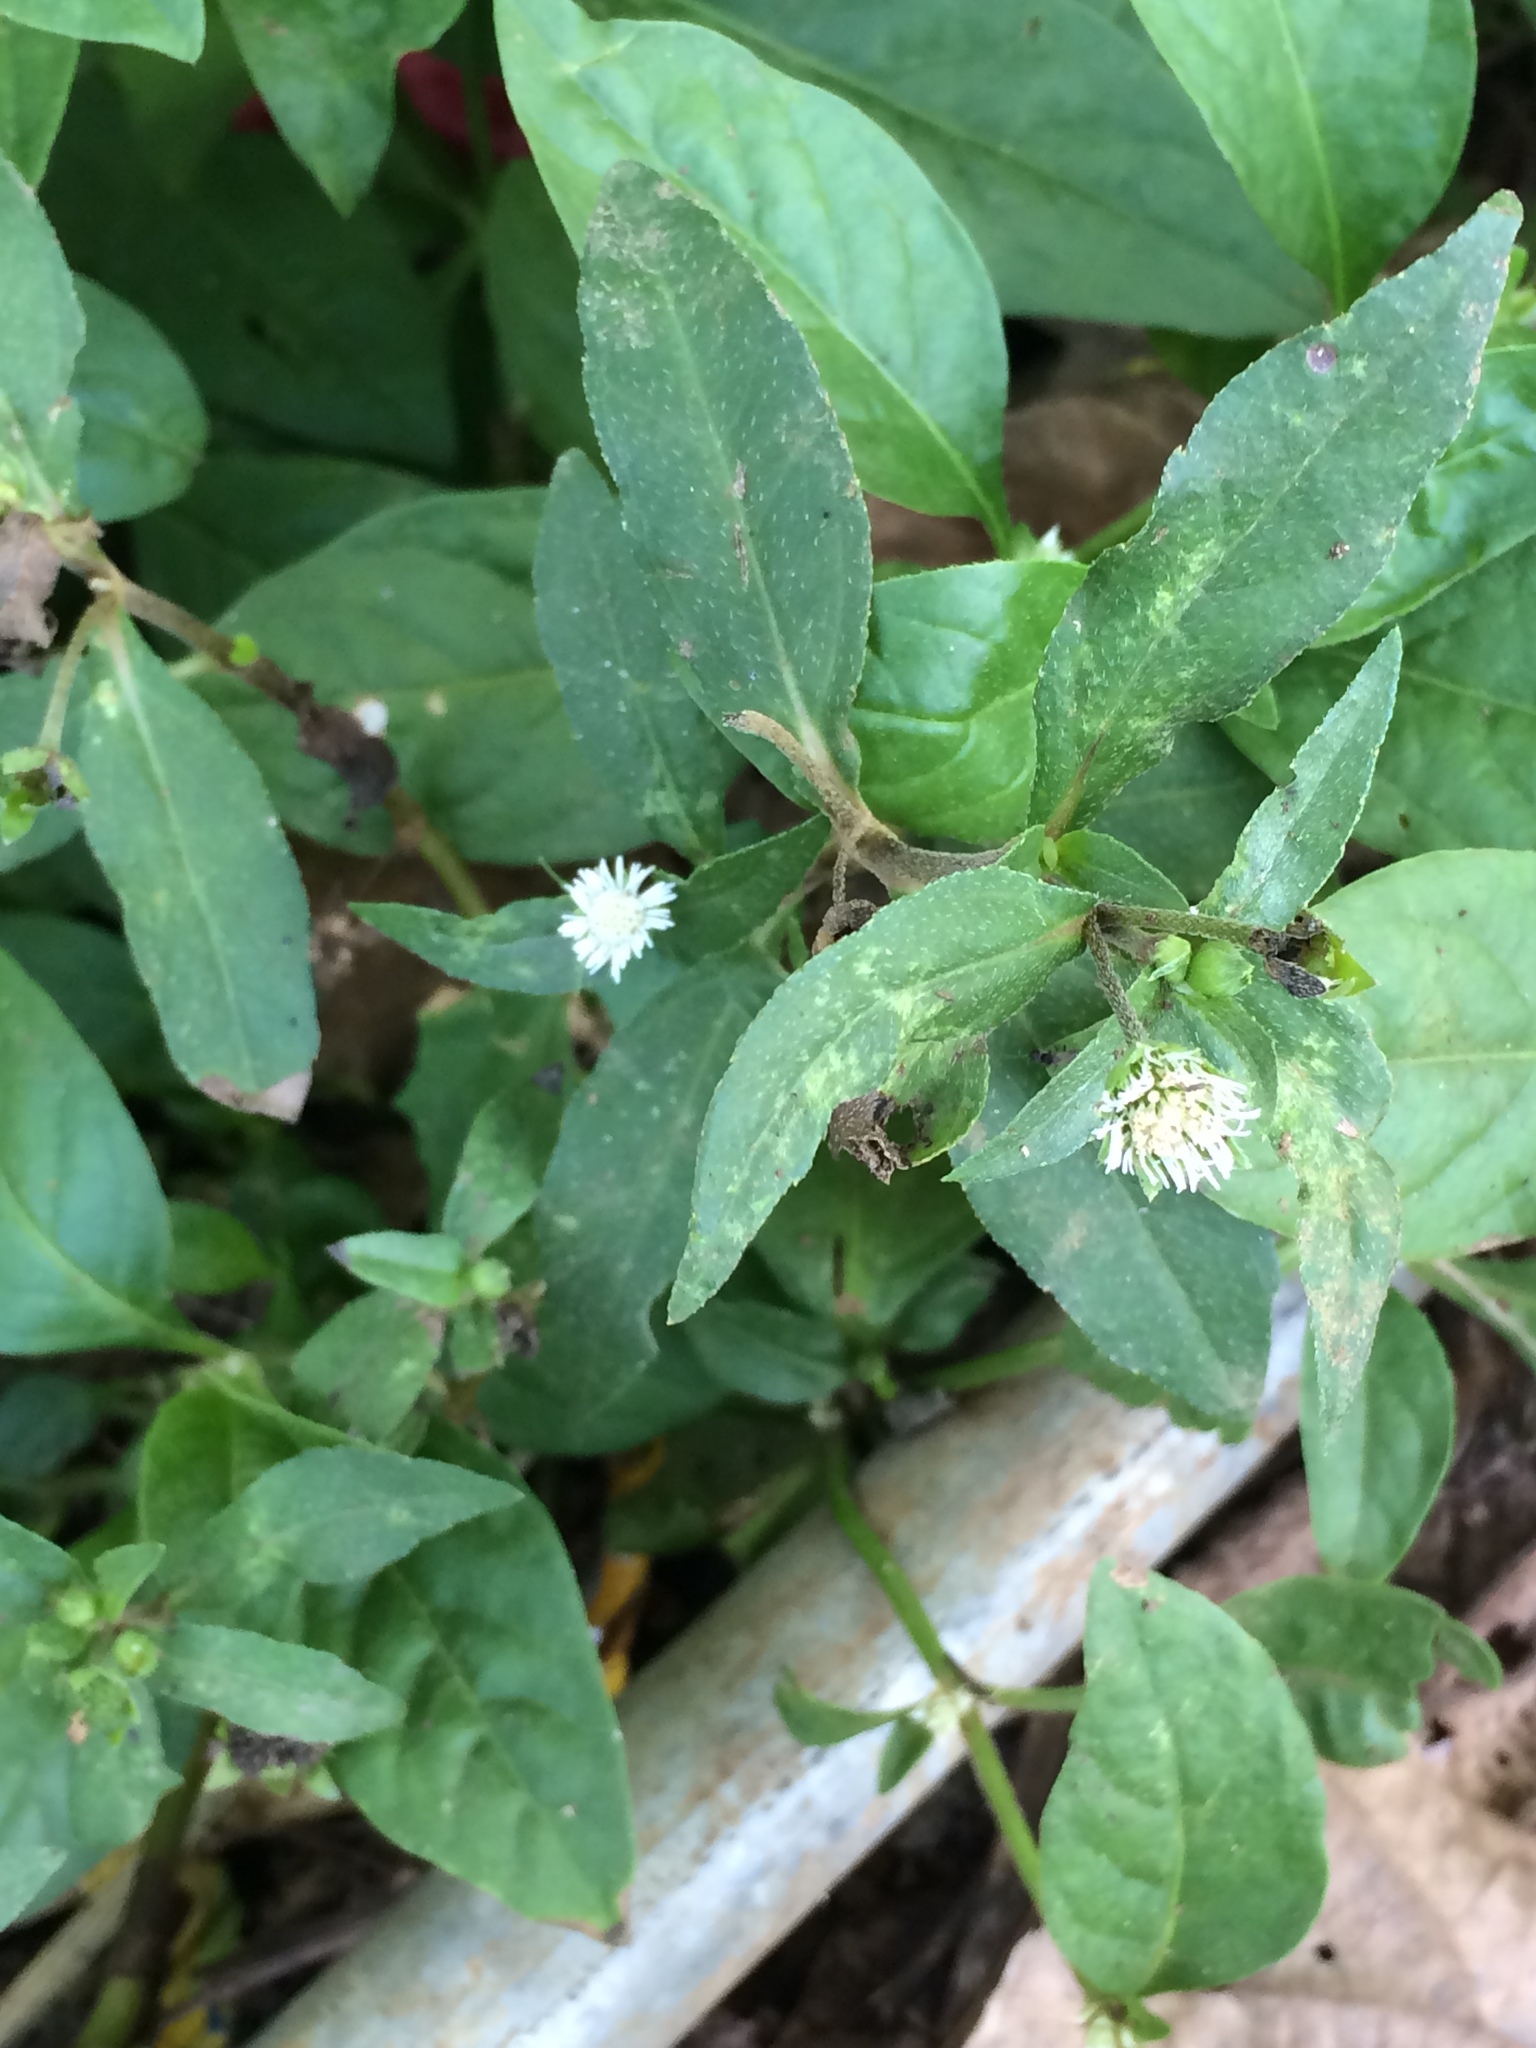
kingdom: Plantae
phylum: Tracheophyta
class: Magnoliopsida
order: Asterales
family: Asteraceae
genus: Eclipta
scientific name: Eclipta prostrata
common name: False daisy
